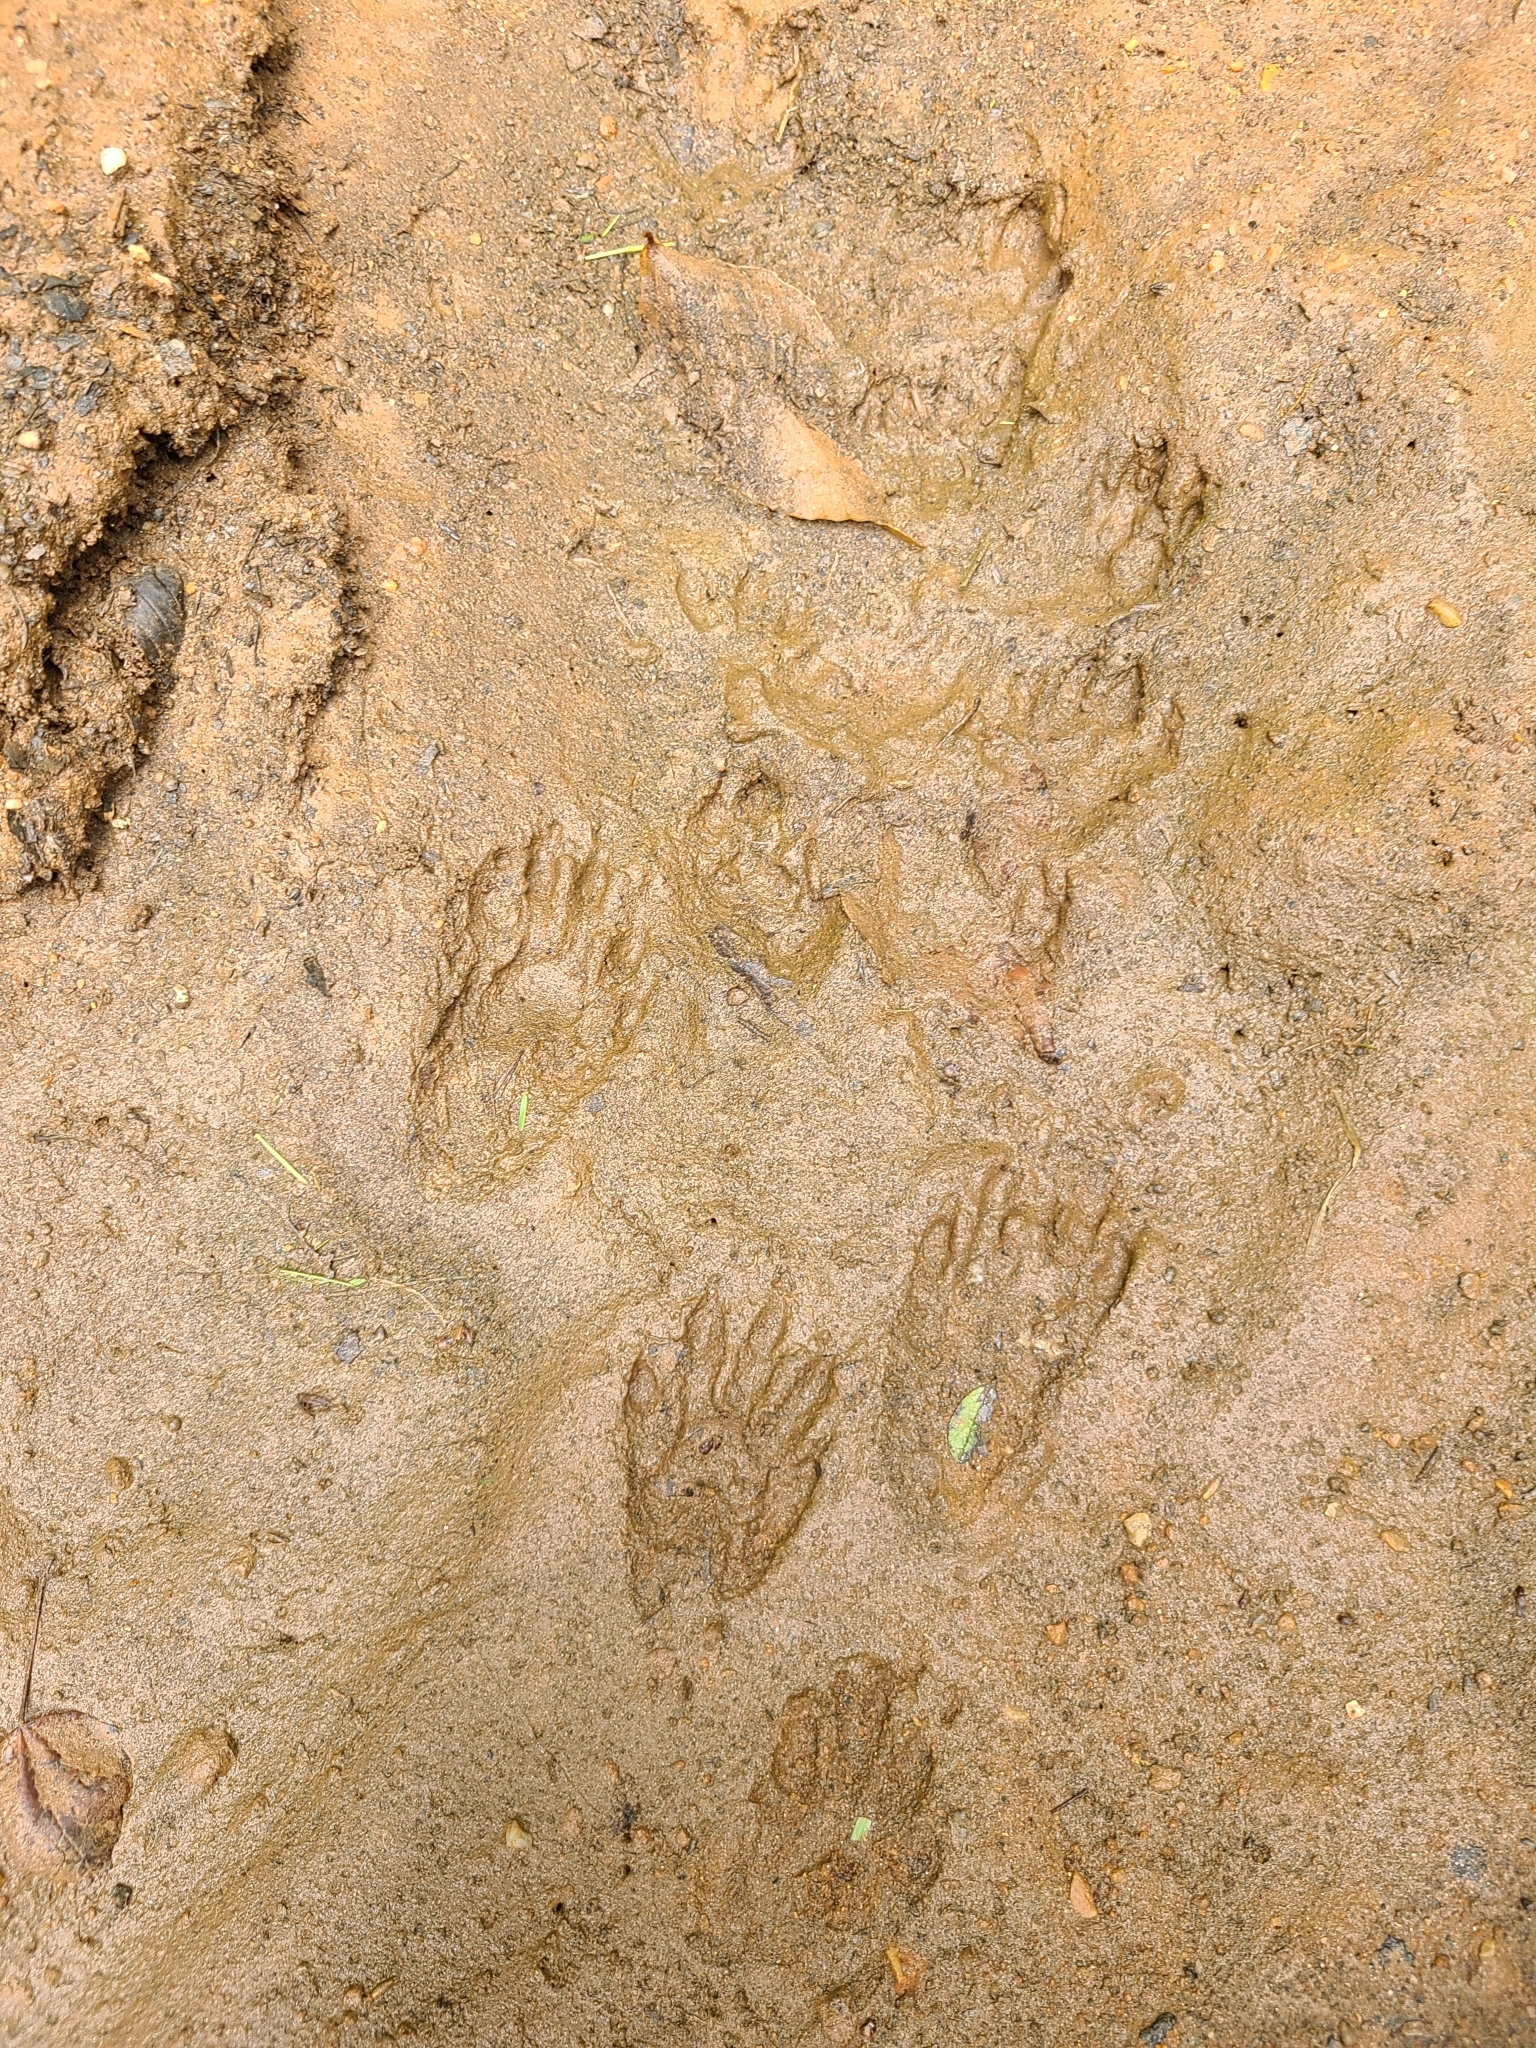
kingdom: Animalia
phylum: Chordata
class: Mammalia
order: Carnivora
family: Procyonidae
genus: Procyon
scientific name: Procyon lotor
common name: Raccoon
